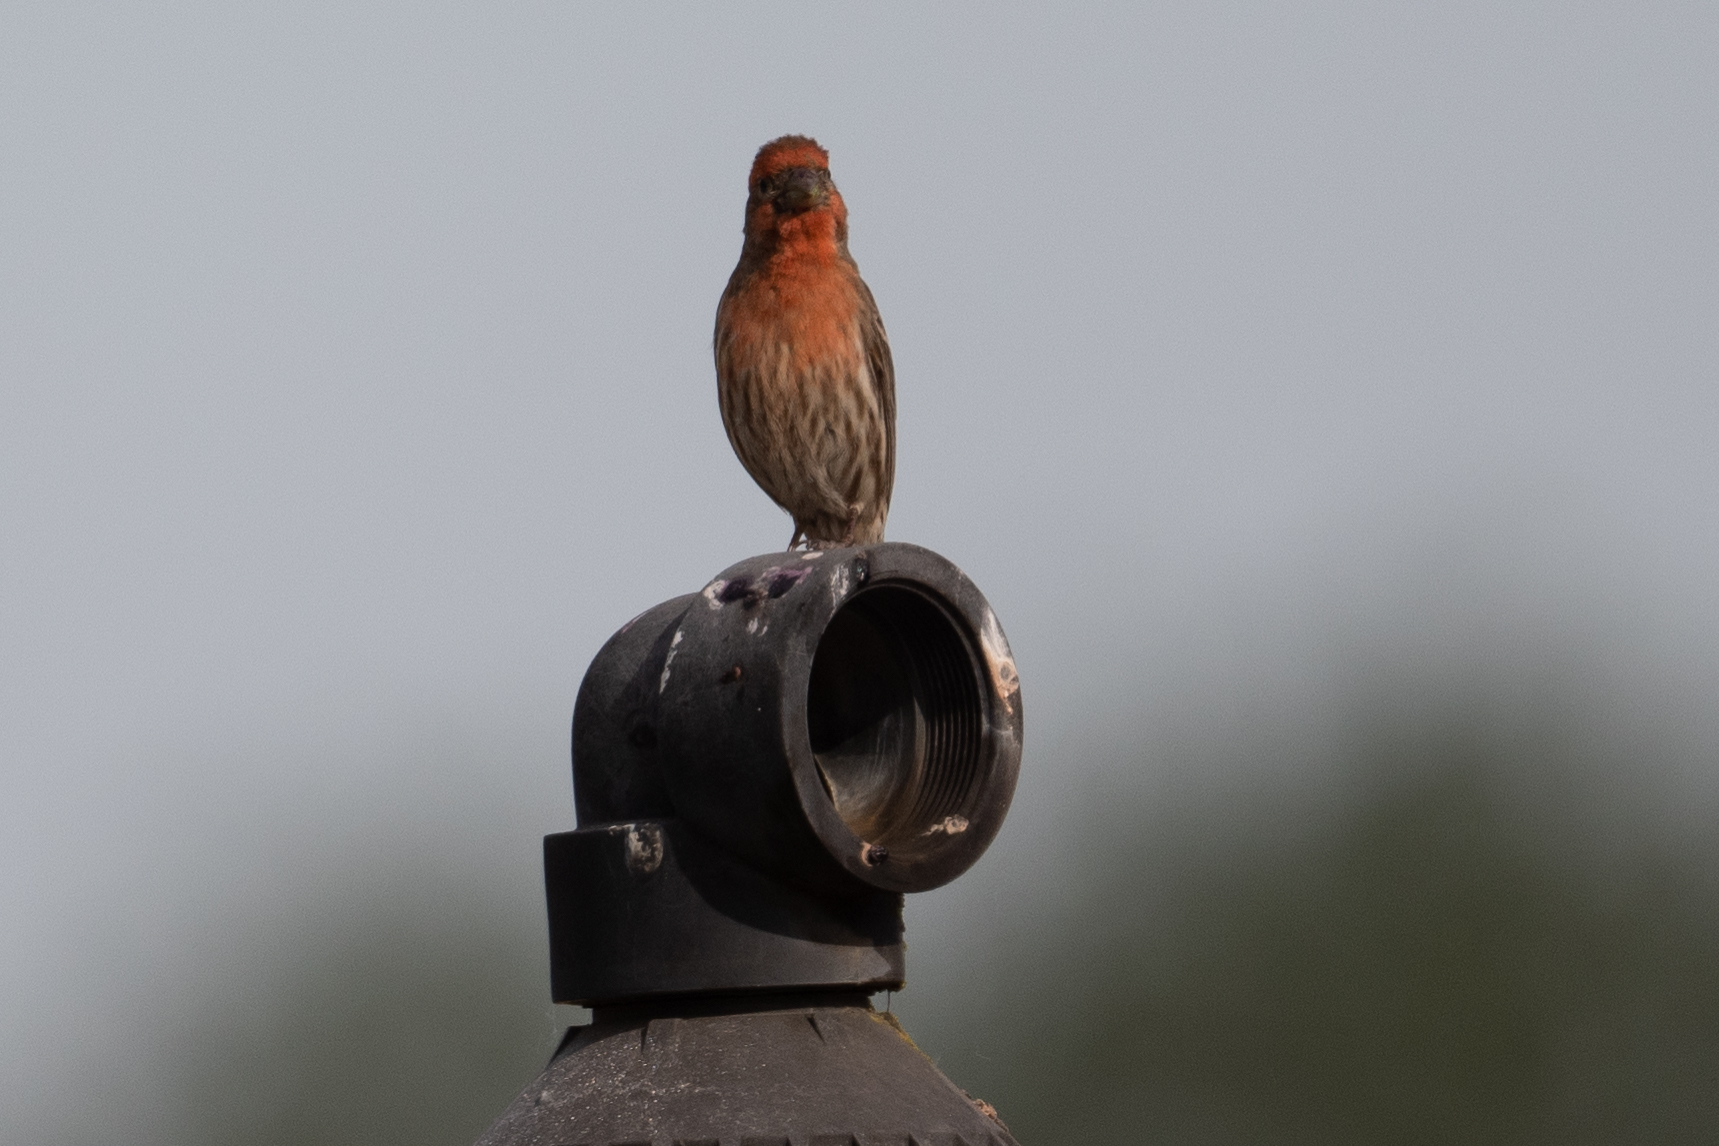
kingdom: Animalia
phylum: Chordata
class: Aves
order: Passeriformes
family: Fringillidae
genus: Haemorhous
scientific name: Haemorhous mexicanus
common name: House finch
